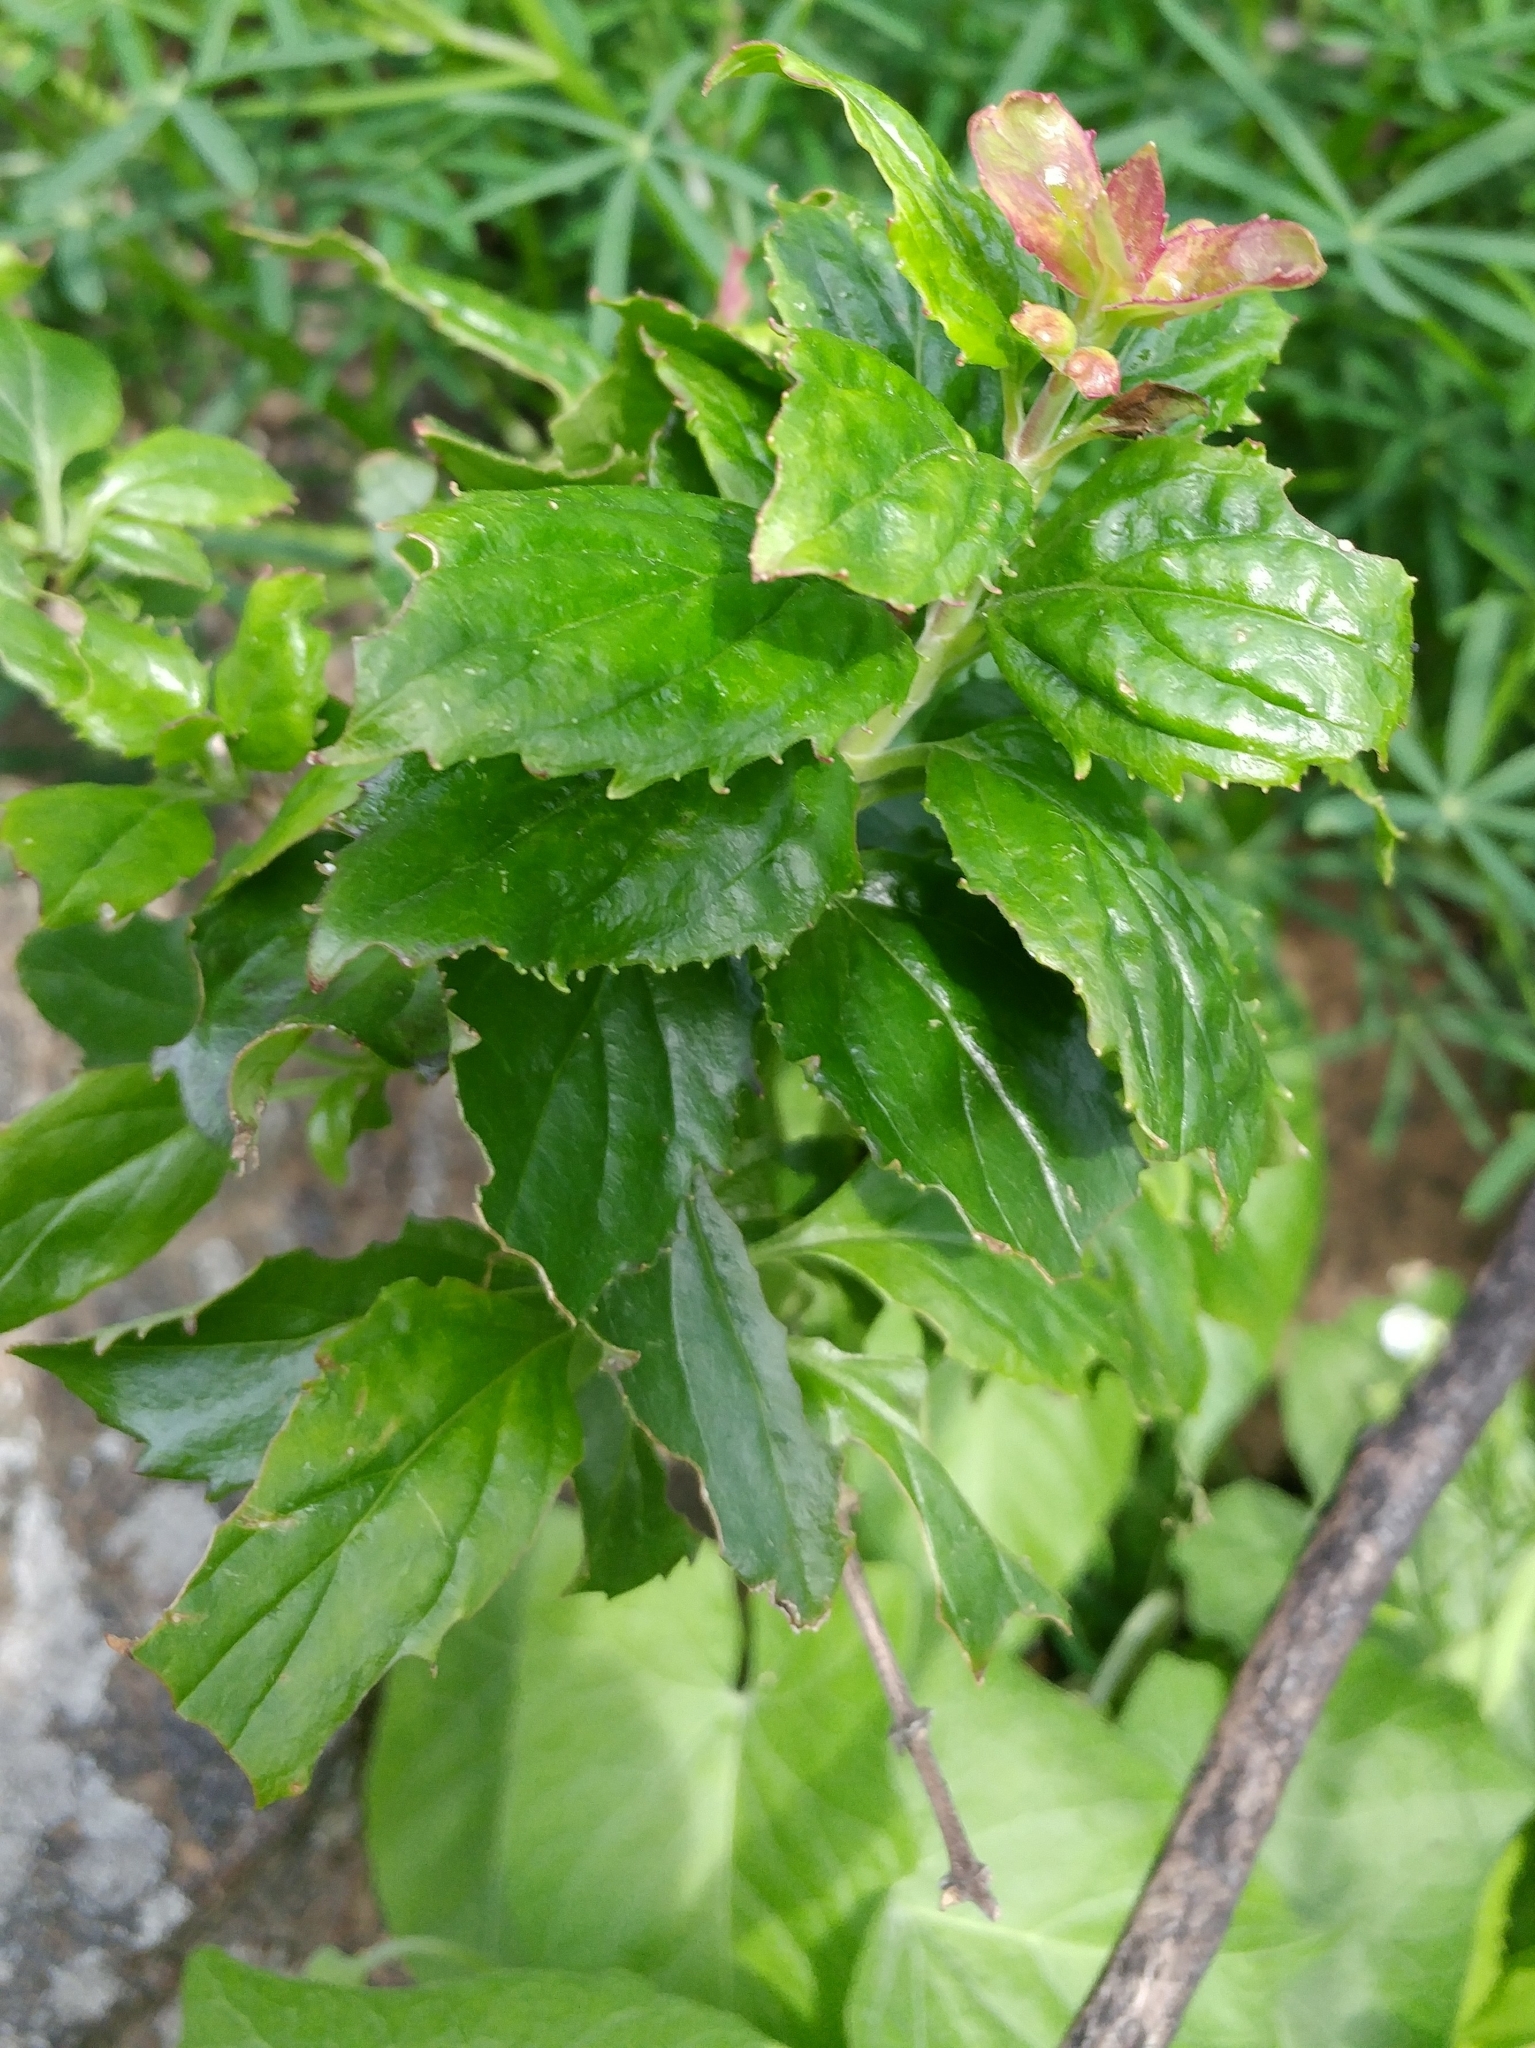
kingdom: Plantae
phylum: Tracheophyta
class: Magnoliopsida
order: Lamiales
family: Plantaginaceae
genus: Keckiella
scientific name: Keckiella cordifolia
